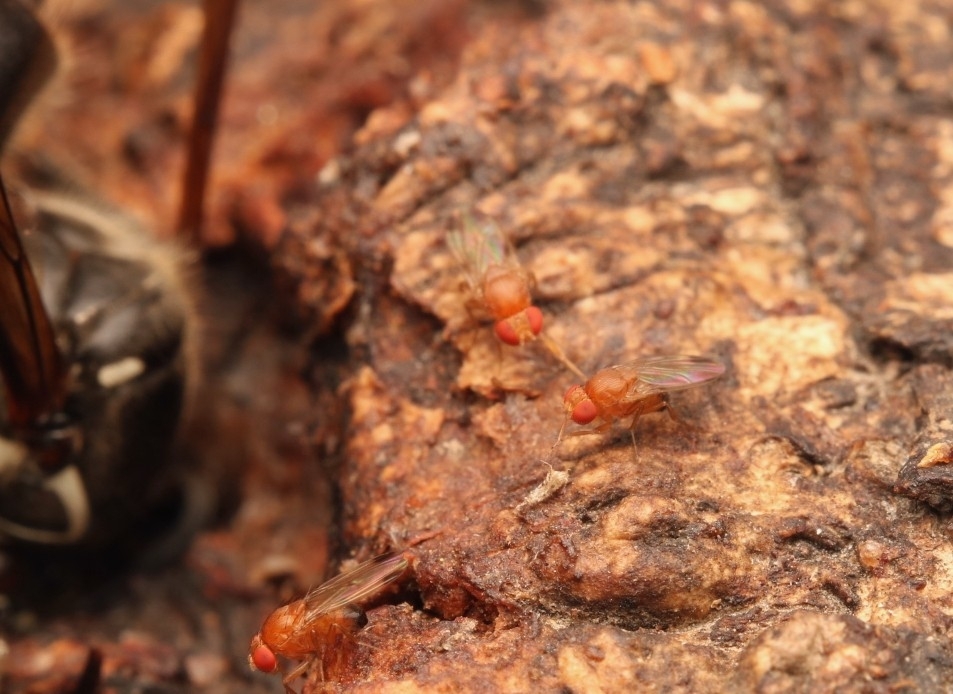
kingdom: Animalia
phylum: Arthropoda
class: Insecta
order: Diptera
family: Drosophilidae
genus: Drosophila
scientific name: Drosophila suzukii
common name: Spotted-wing drosophila
